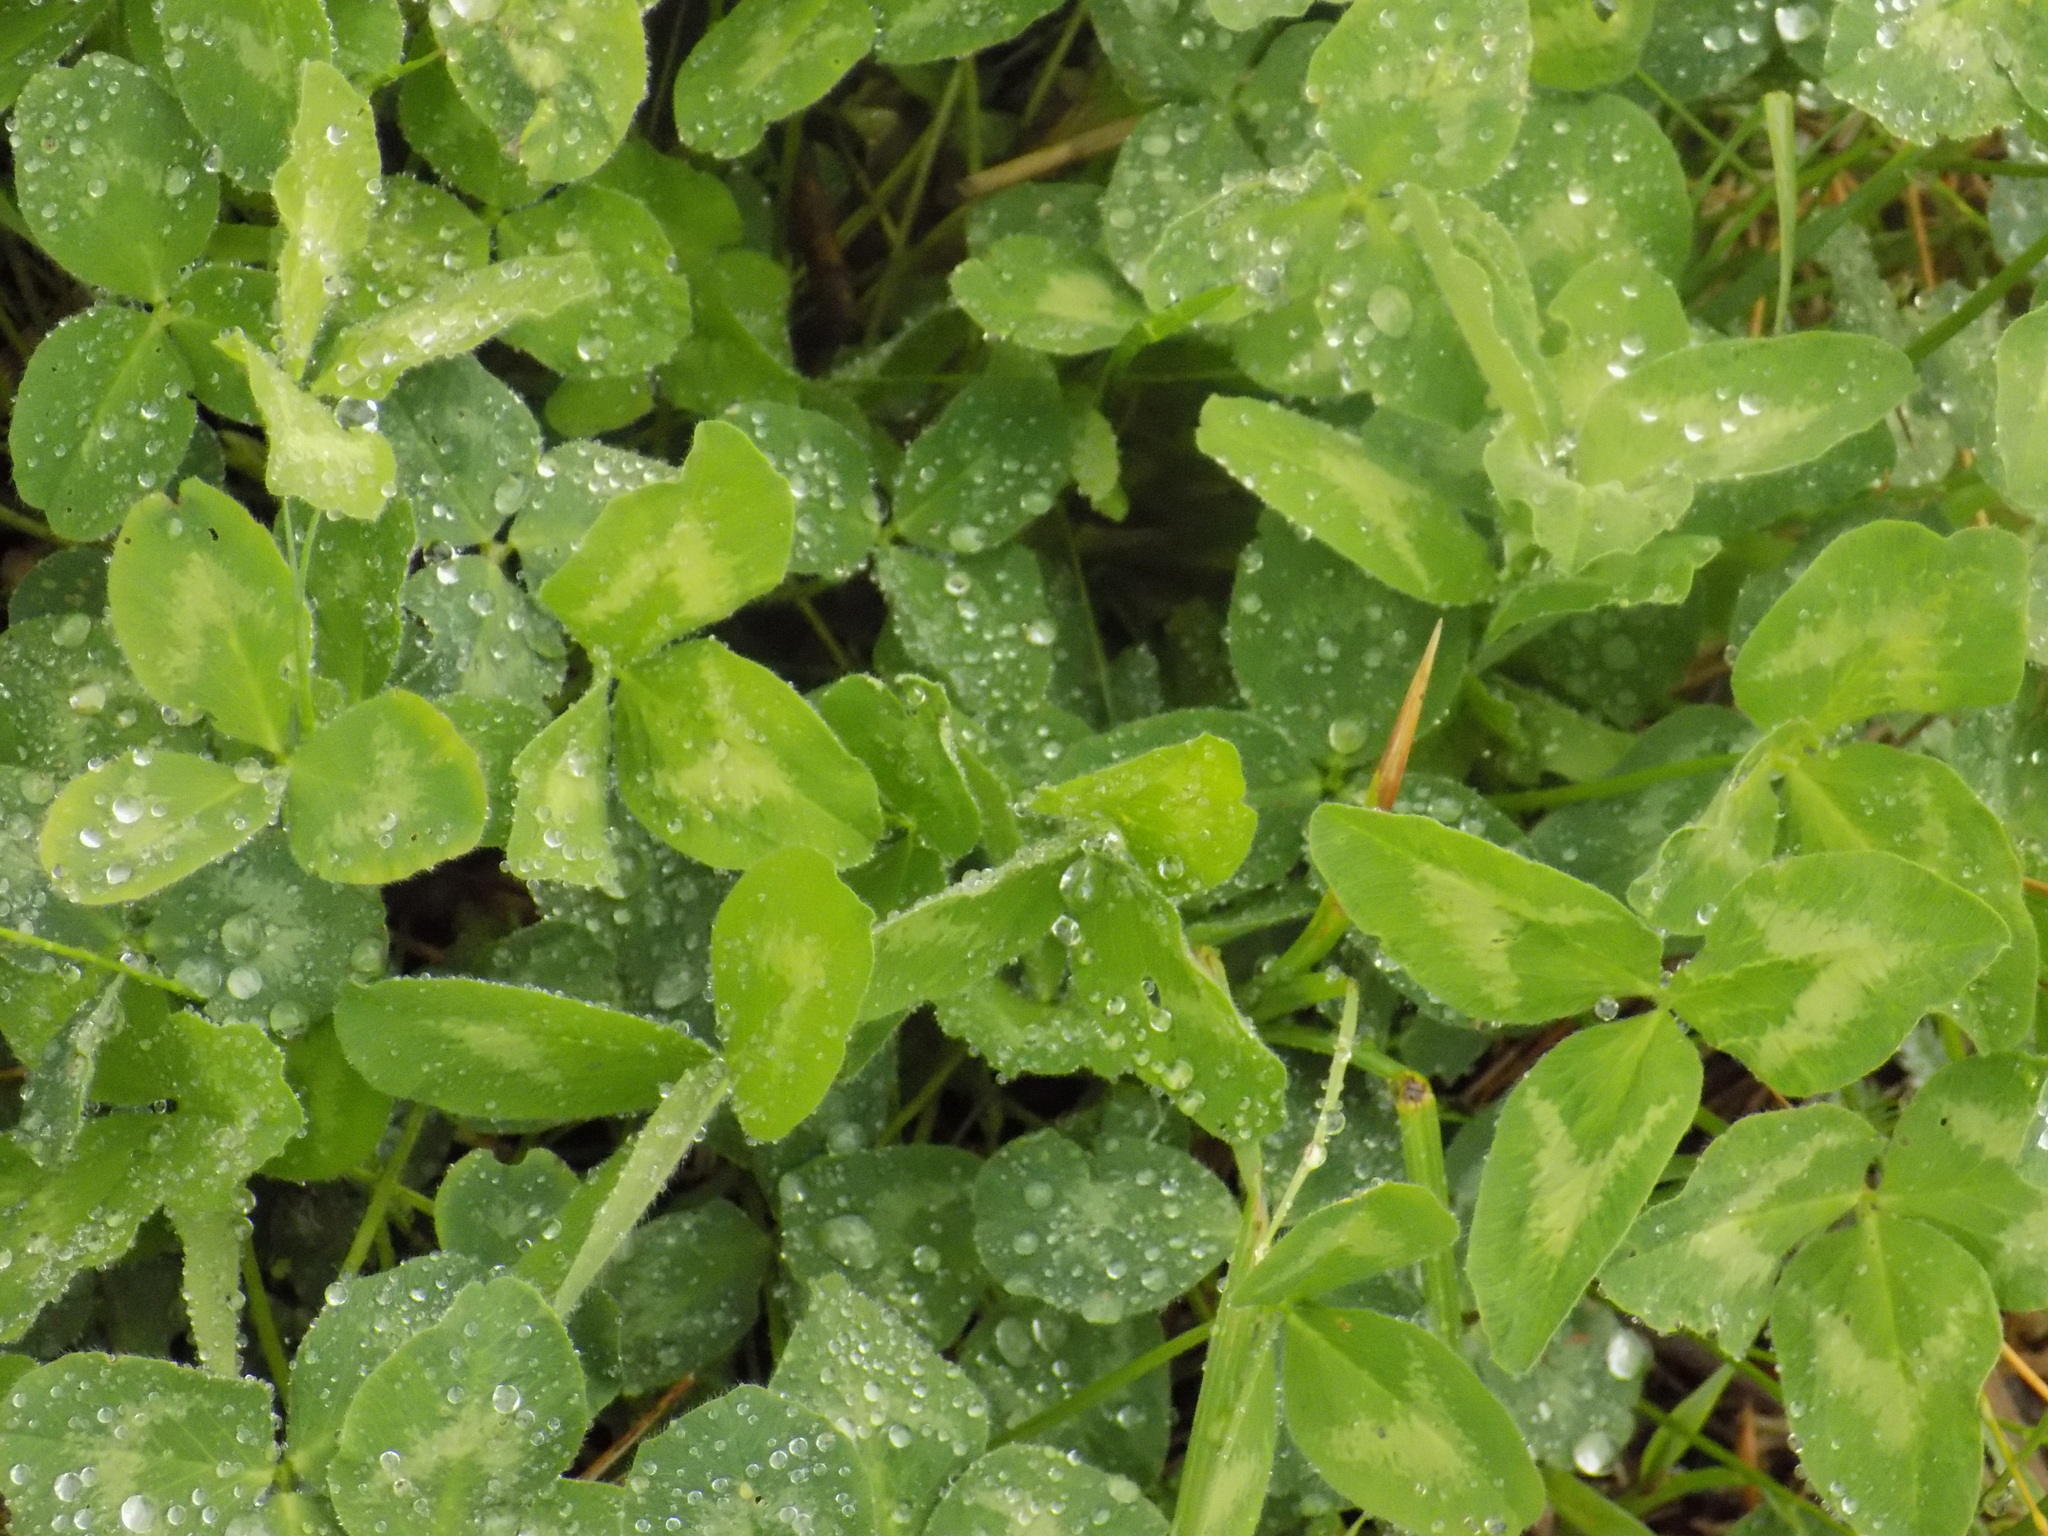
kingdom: Plantae
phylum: Tracheophyta
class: Magnoliopsida
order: Fabales
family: Fabaceae
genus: Trifolium
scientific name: Trifolium pratense
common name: Red clover
